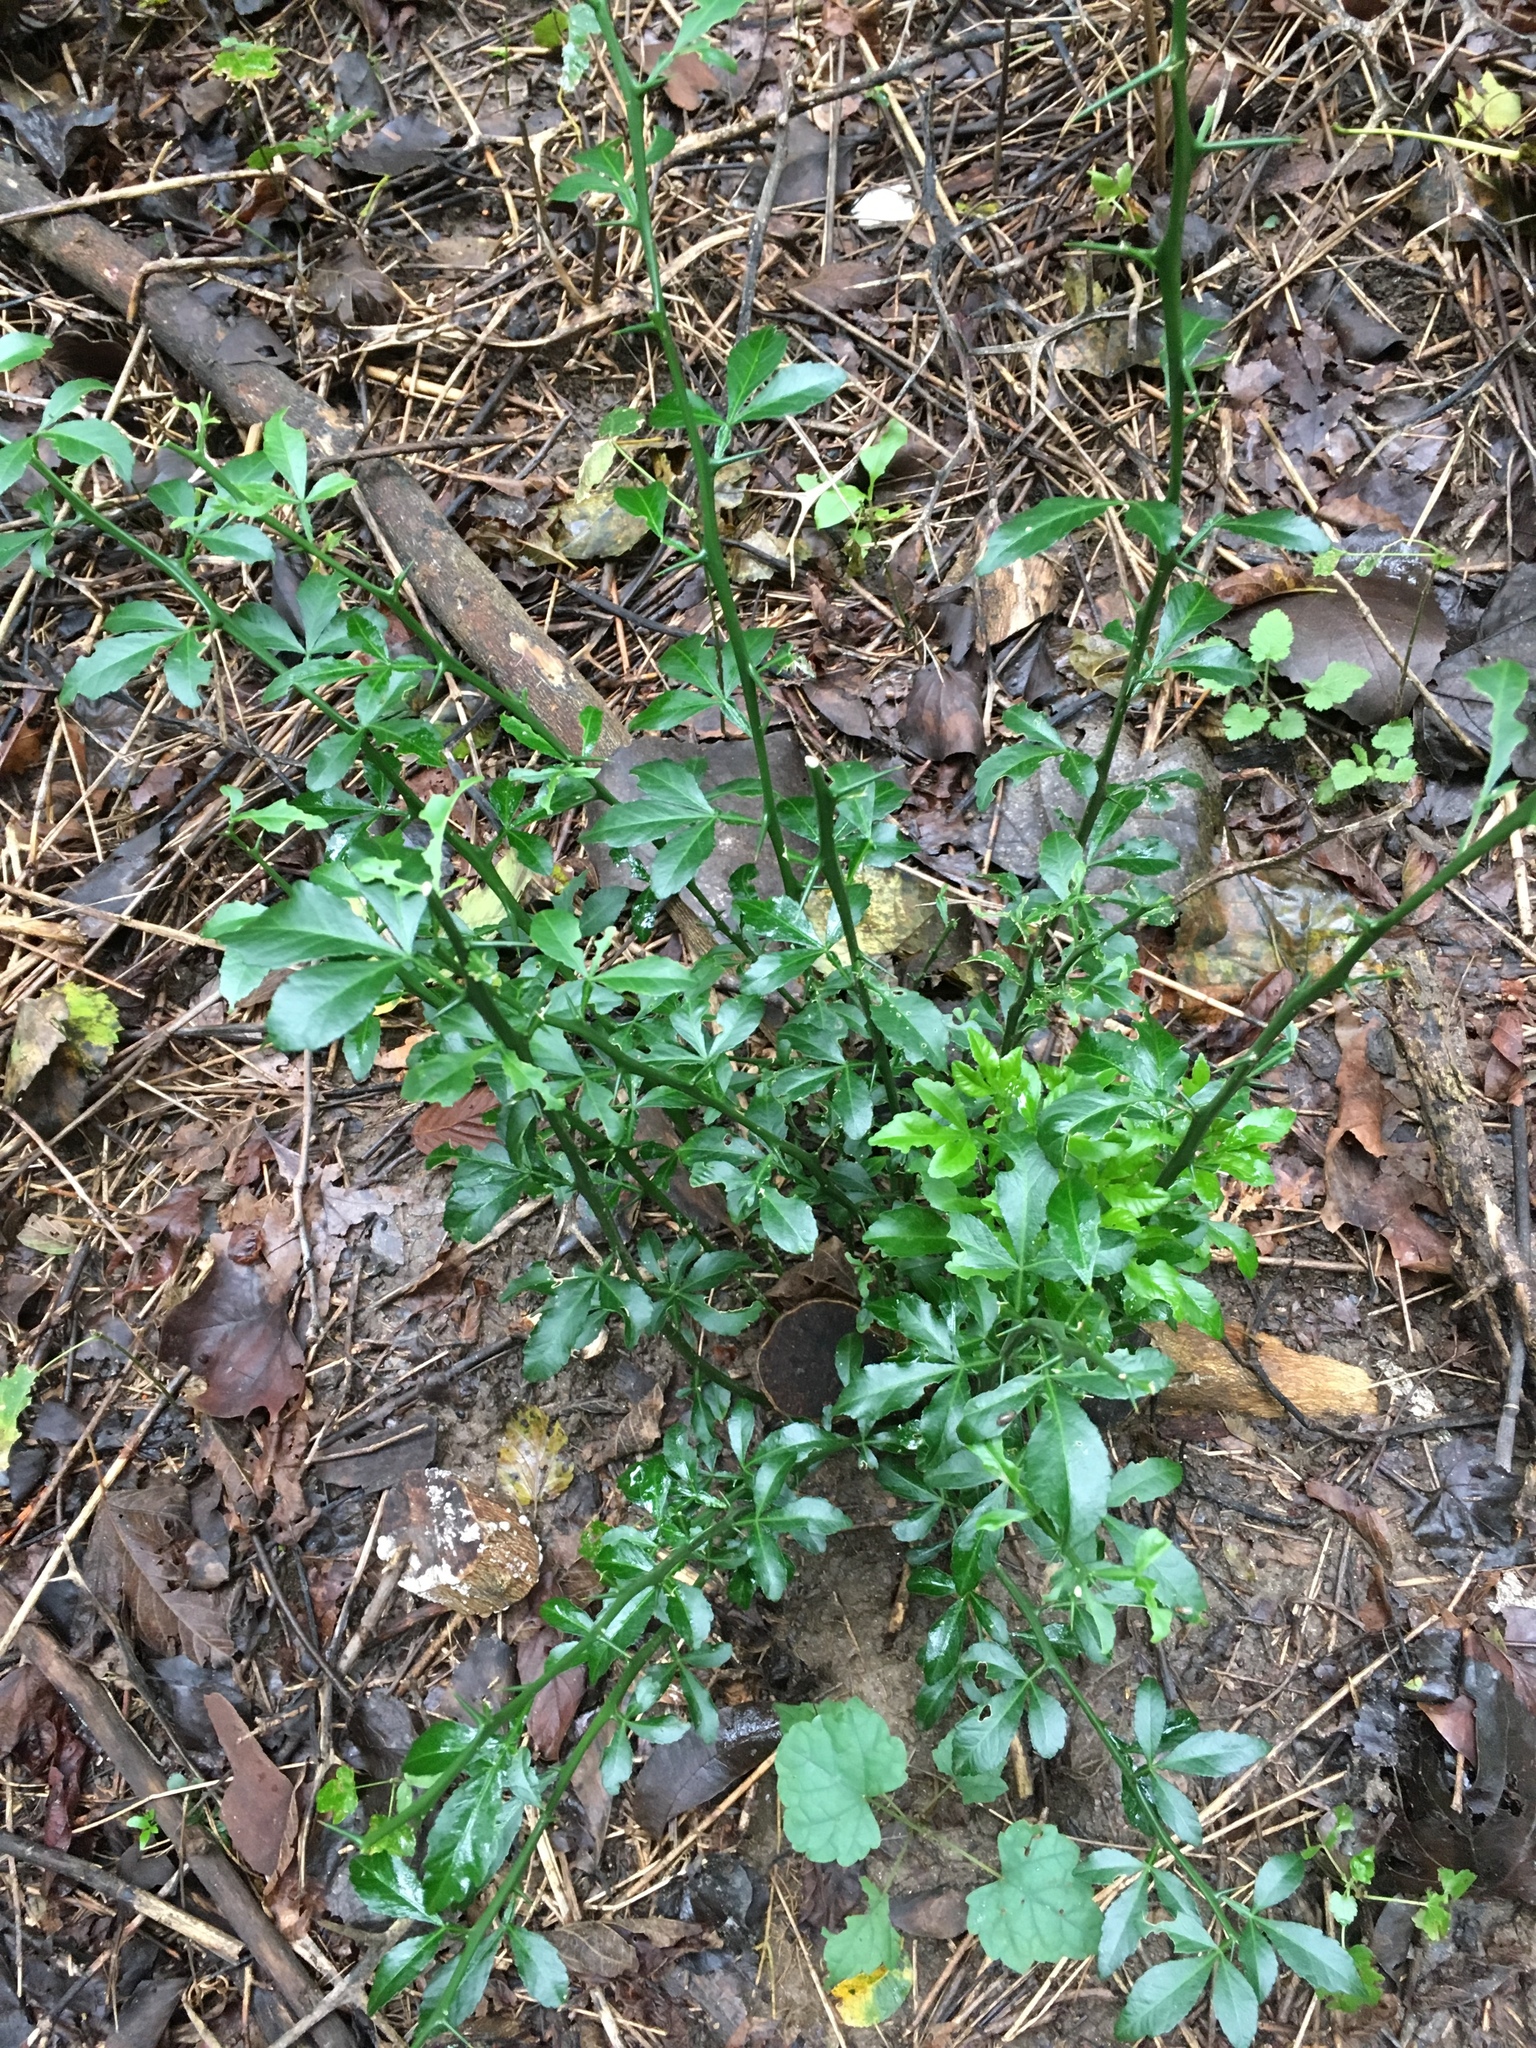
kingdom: Plantae
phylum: Tracheophyta
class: Magnoliopsida
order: Sapindales
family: Rutaceae
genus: Citrus
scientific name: Citrus trifoliata
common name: Japanese bitter-orange
